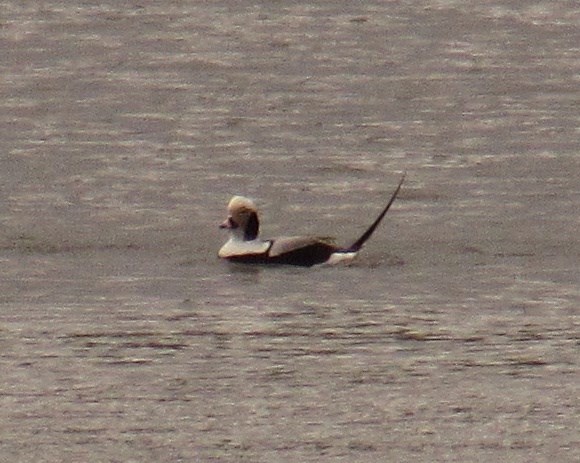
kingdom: Animalia
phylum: Chordata
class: Aves
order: Anseriformes
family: Anatidae
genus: Clangula
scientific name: Clangula hyemalis
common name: Long-tailed duck
